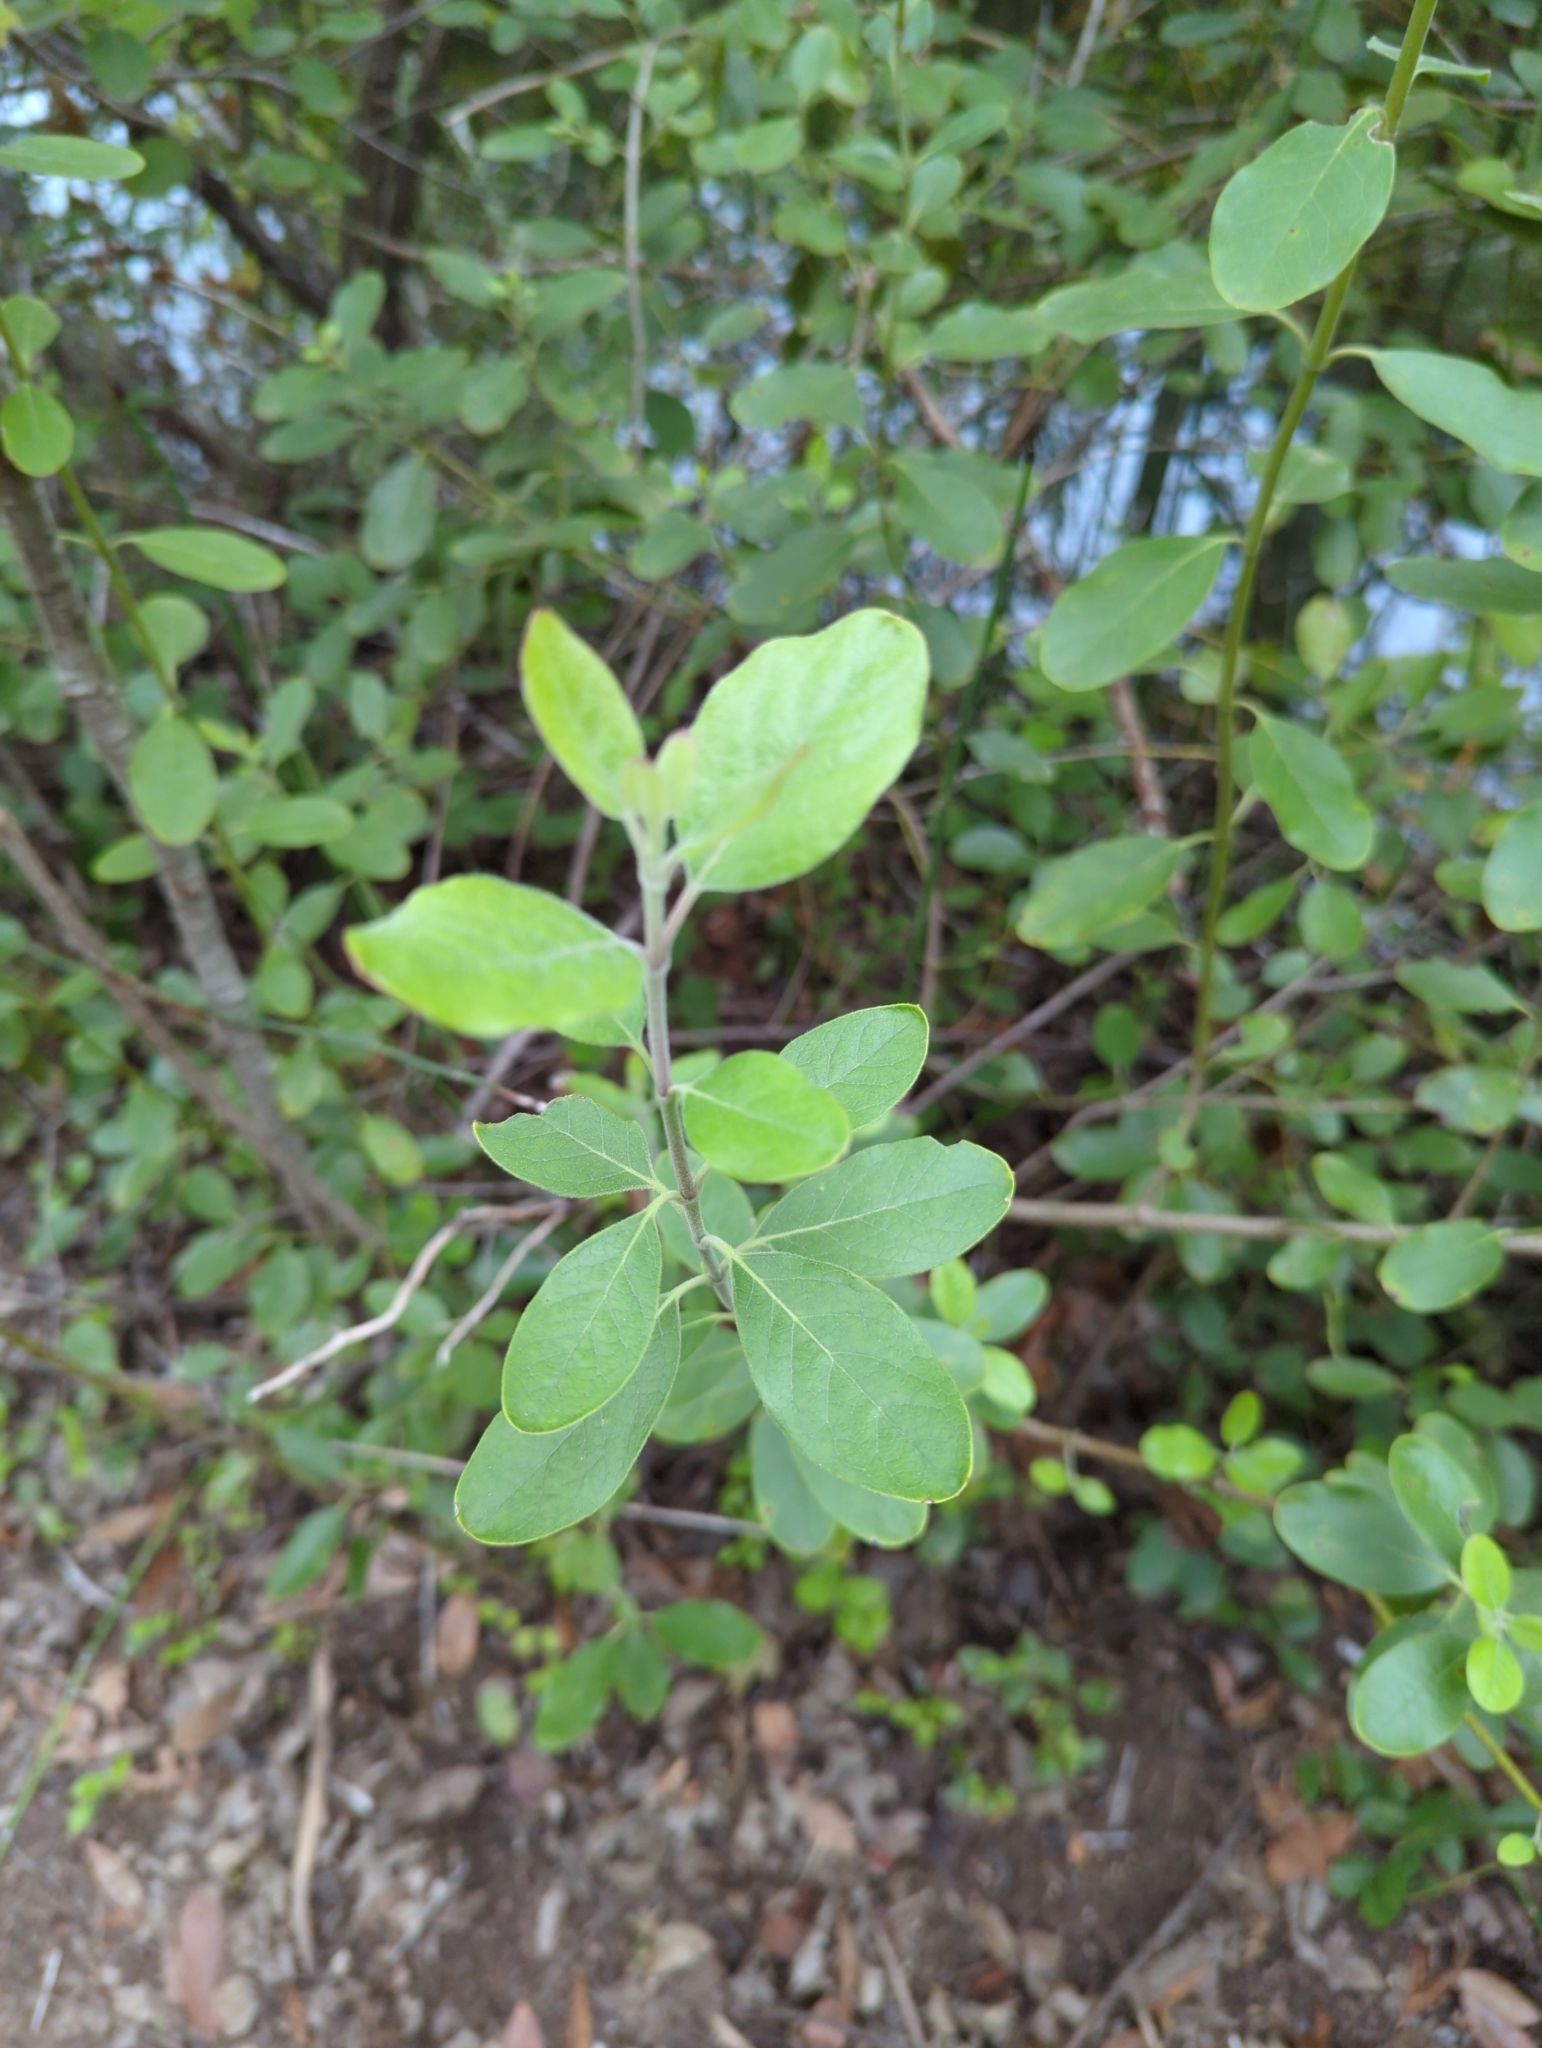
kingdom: Plantae
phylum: Tracheophyta
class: Magnoliopsida
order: Garryales
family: Garryaceae
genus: Garrya
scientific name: Garrya lindheimeri
